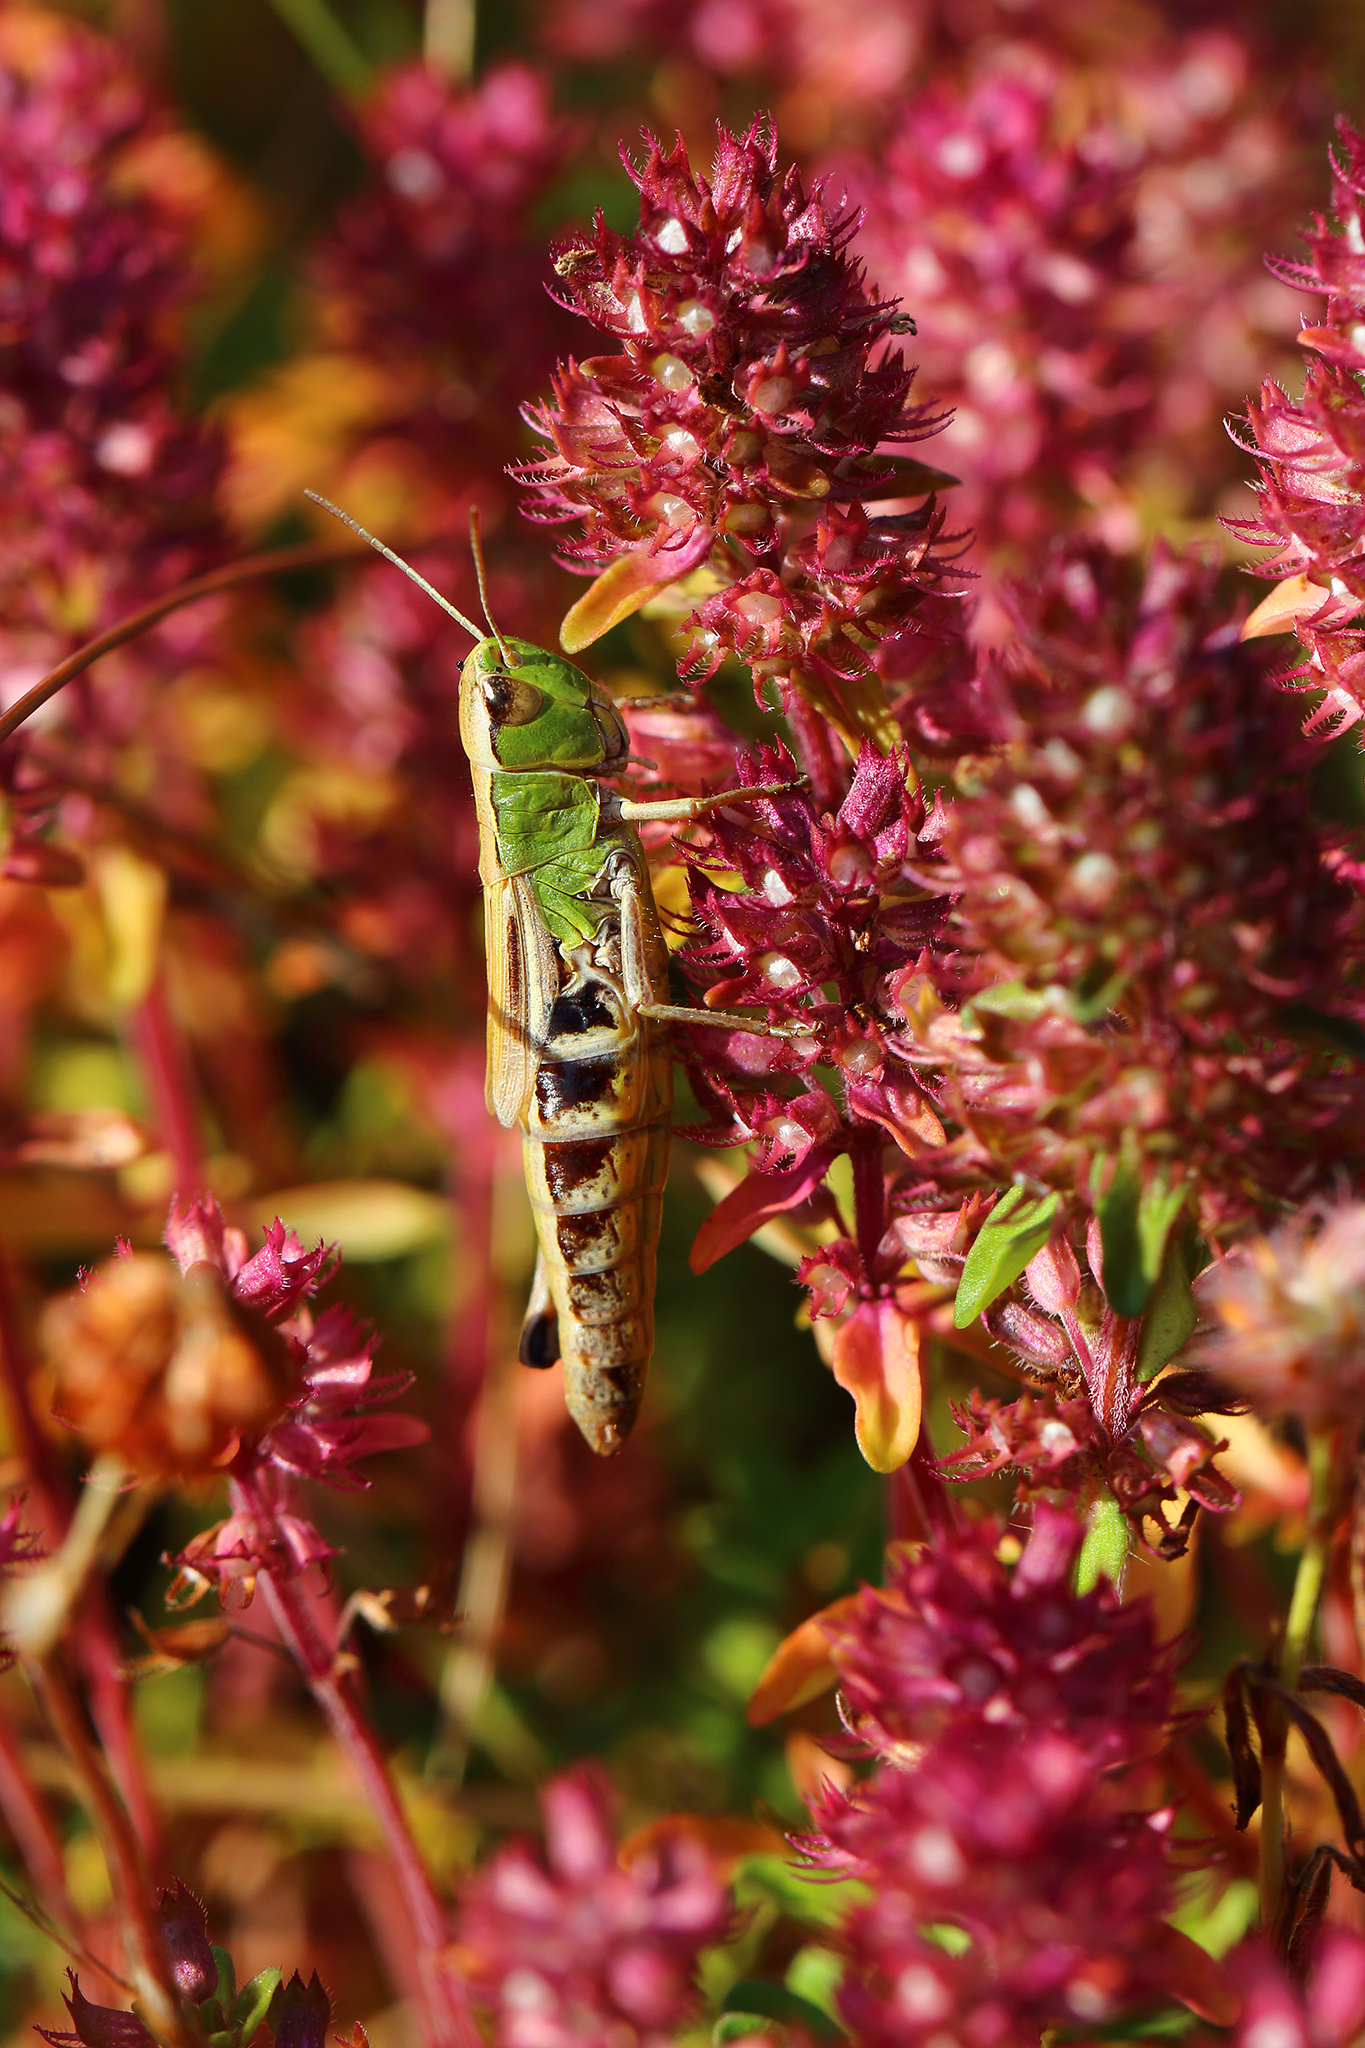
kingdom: Animalia
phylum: Arthropoda
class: Insecta
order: Orthoptera
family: Acrididae
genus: Pseudochorthippus
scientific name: Pseudochorthippus parallelus
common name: Meadow grasshopper
